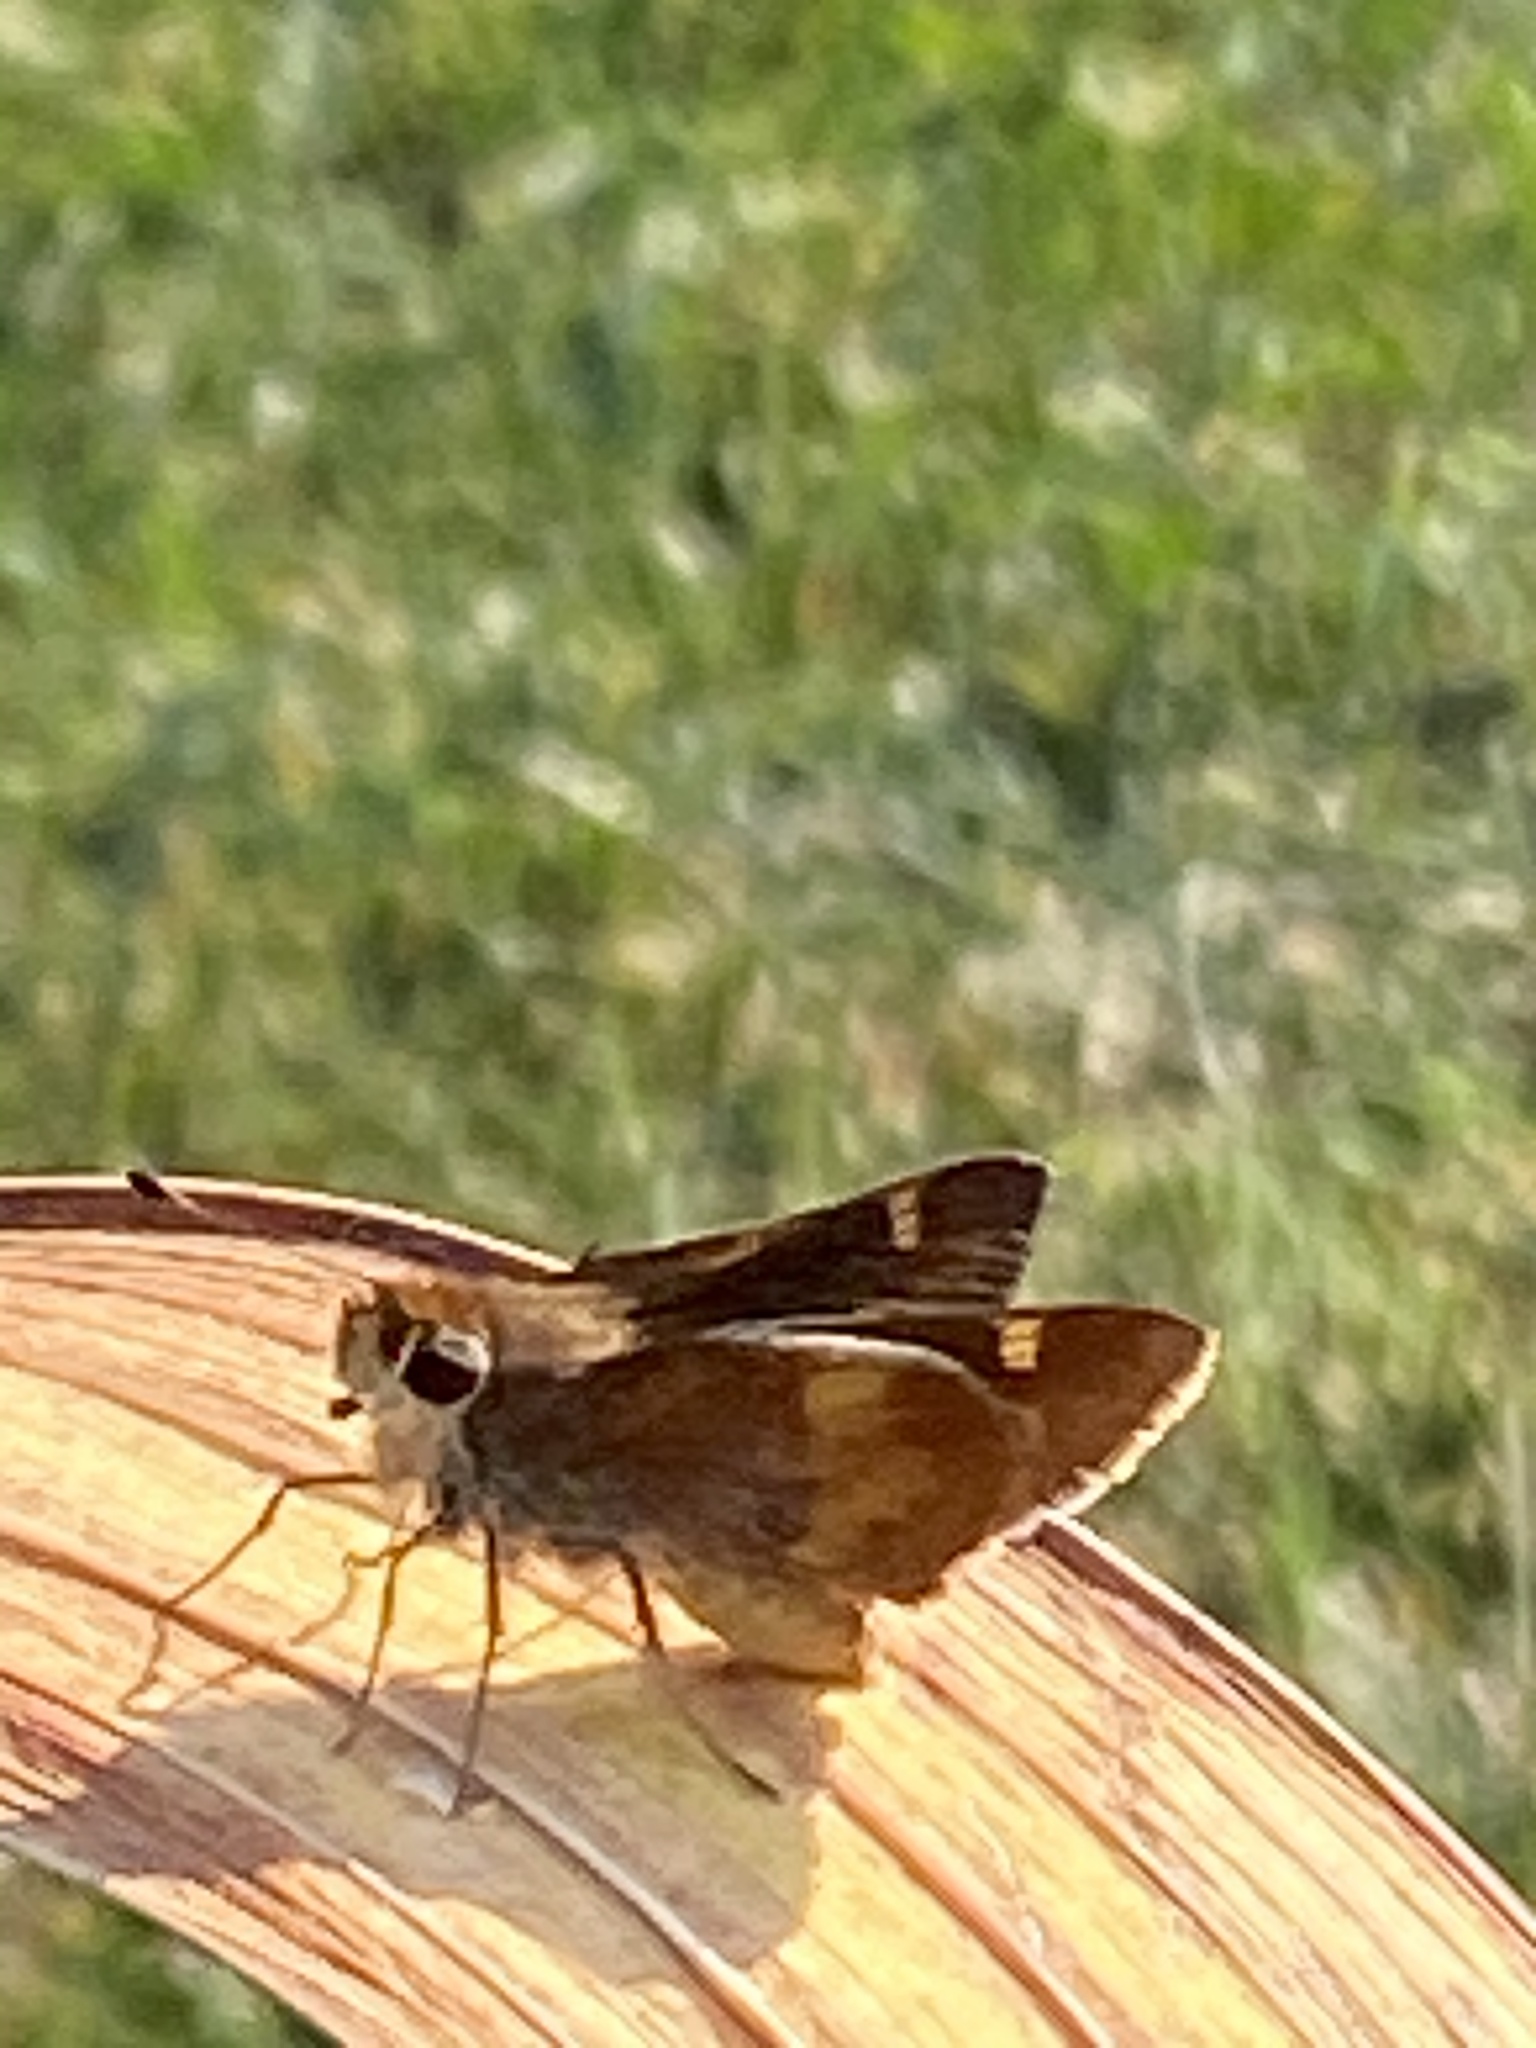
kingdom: Animalia
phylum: Arthropoda
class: Insecta
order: Lepidoptera
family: Hesperiidae
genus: Lon
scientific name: Lon melane
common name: Umber skipper
